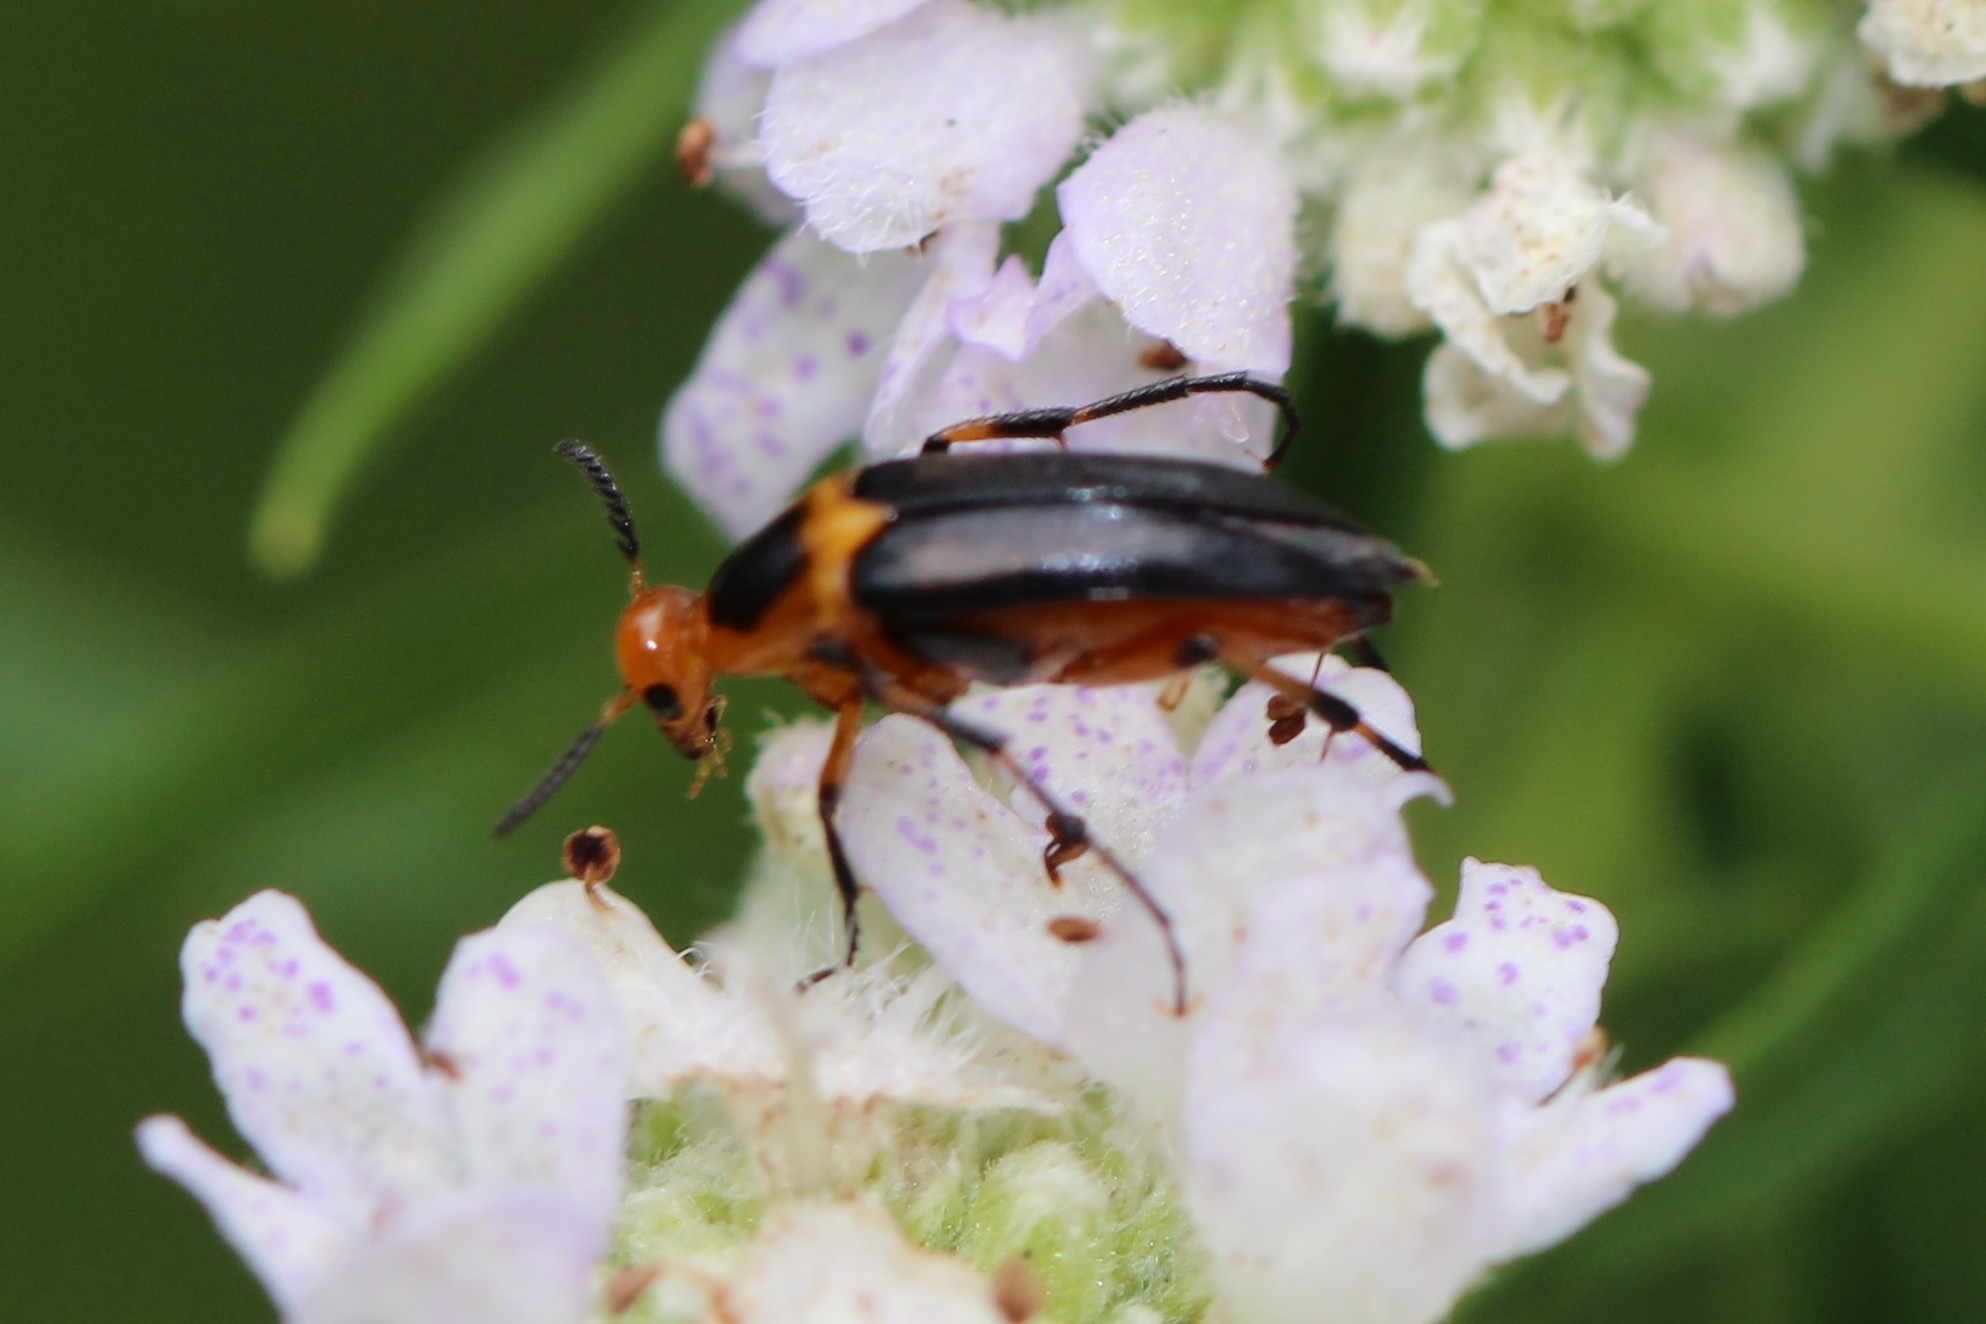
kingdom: Animalia
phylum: Arthropoda
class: Insecta
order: Coleoptera
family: Ripiphoridae
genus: Macrosiagon
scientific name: Macrosiagon limbatum
